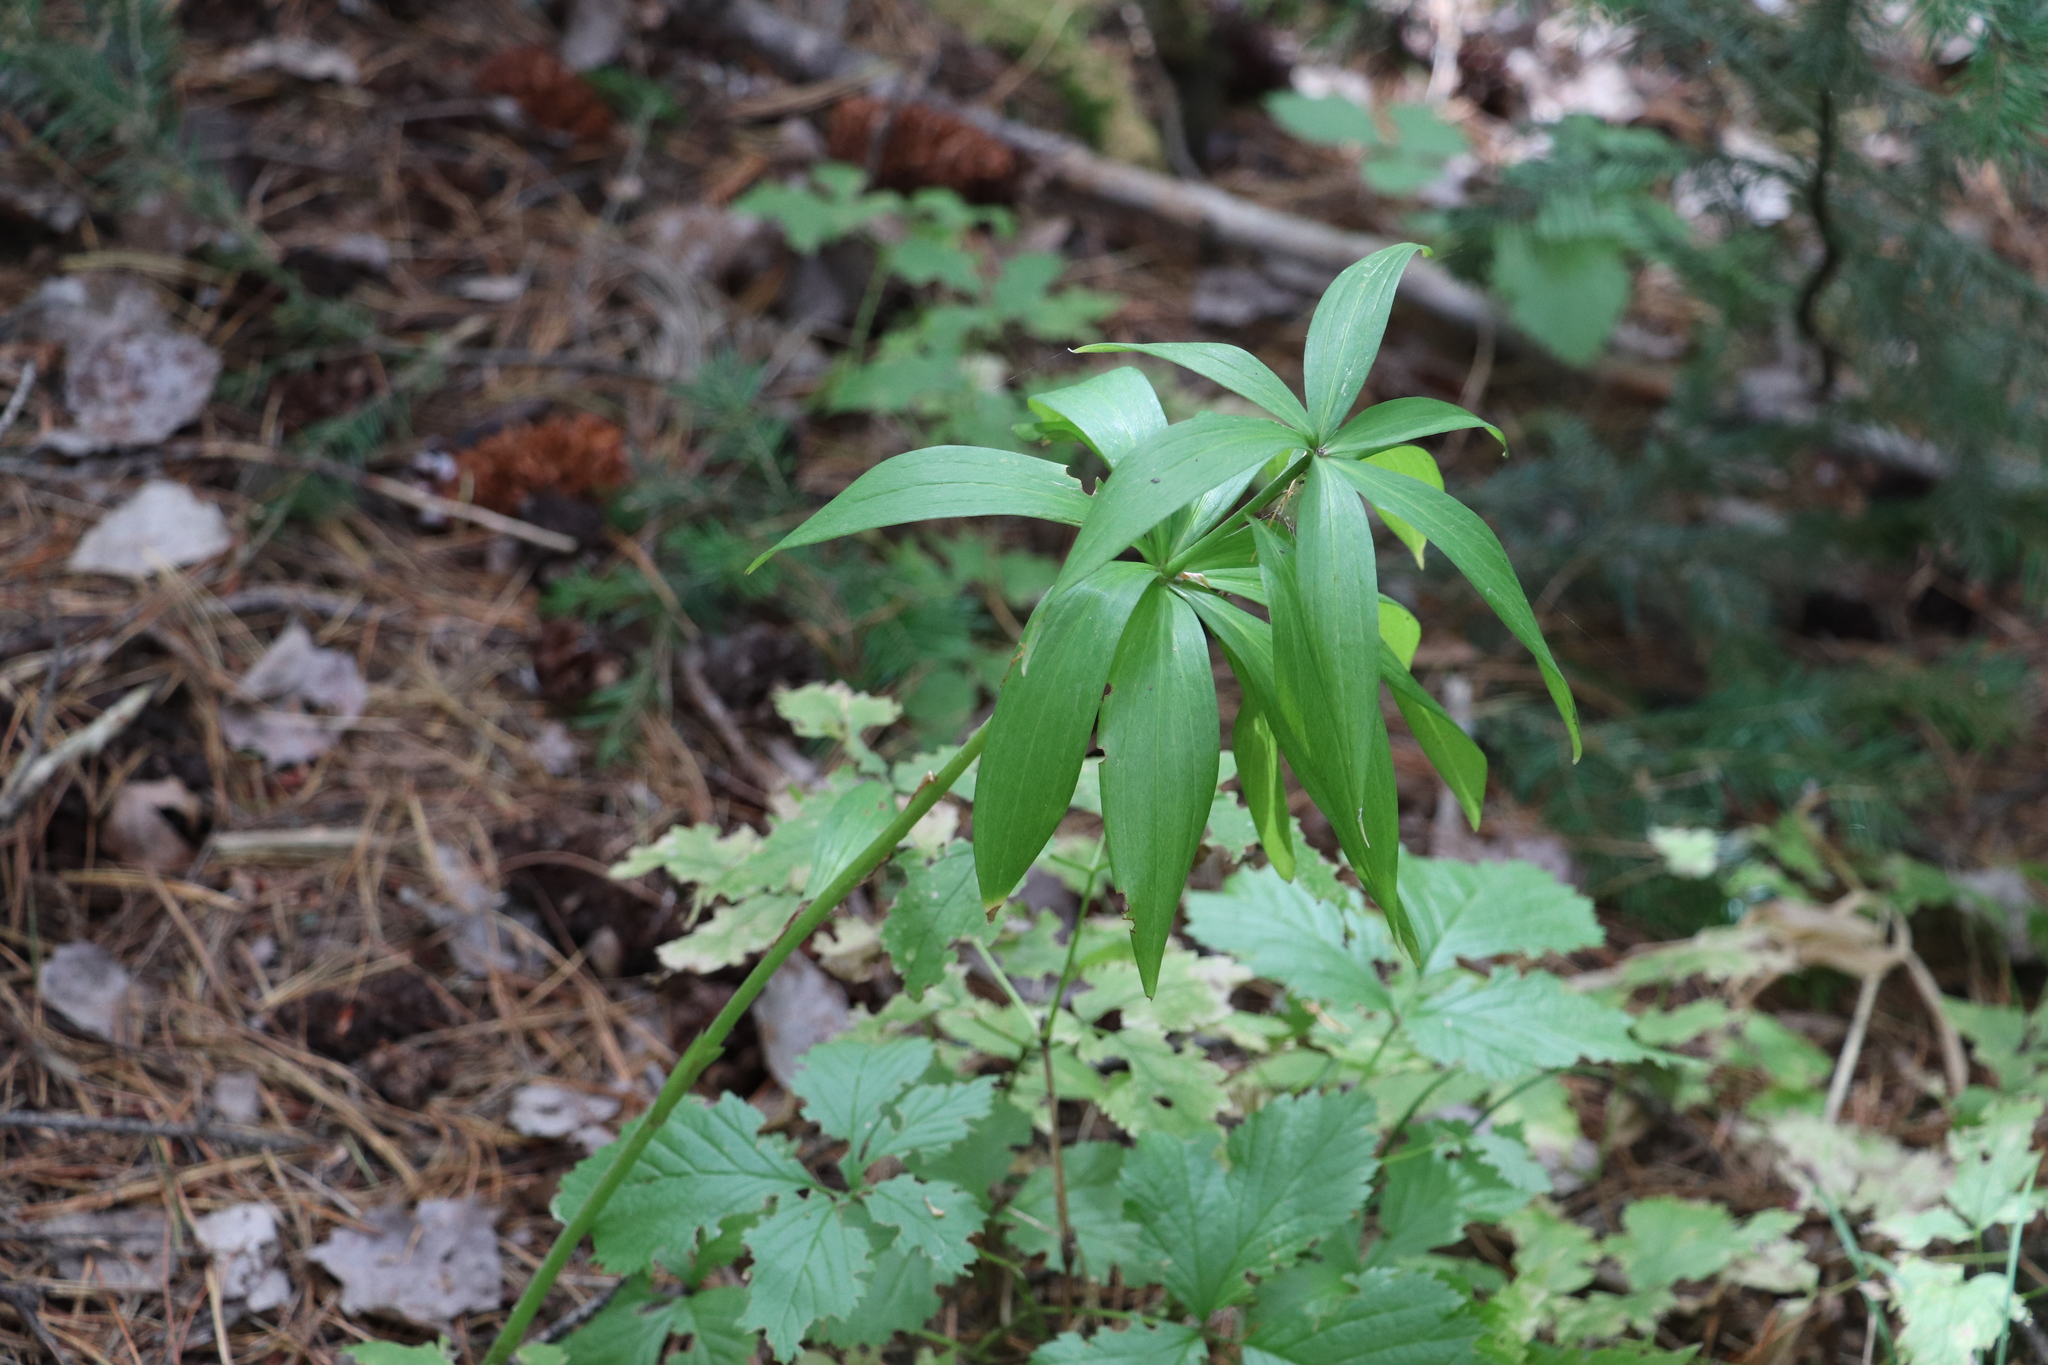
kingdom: Plantae
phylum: Tracheophyta
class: Liliopsida
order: Liliales
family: Liliaceae
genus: Lilium
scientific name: Lilium martagon
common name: Martagon lily
